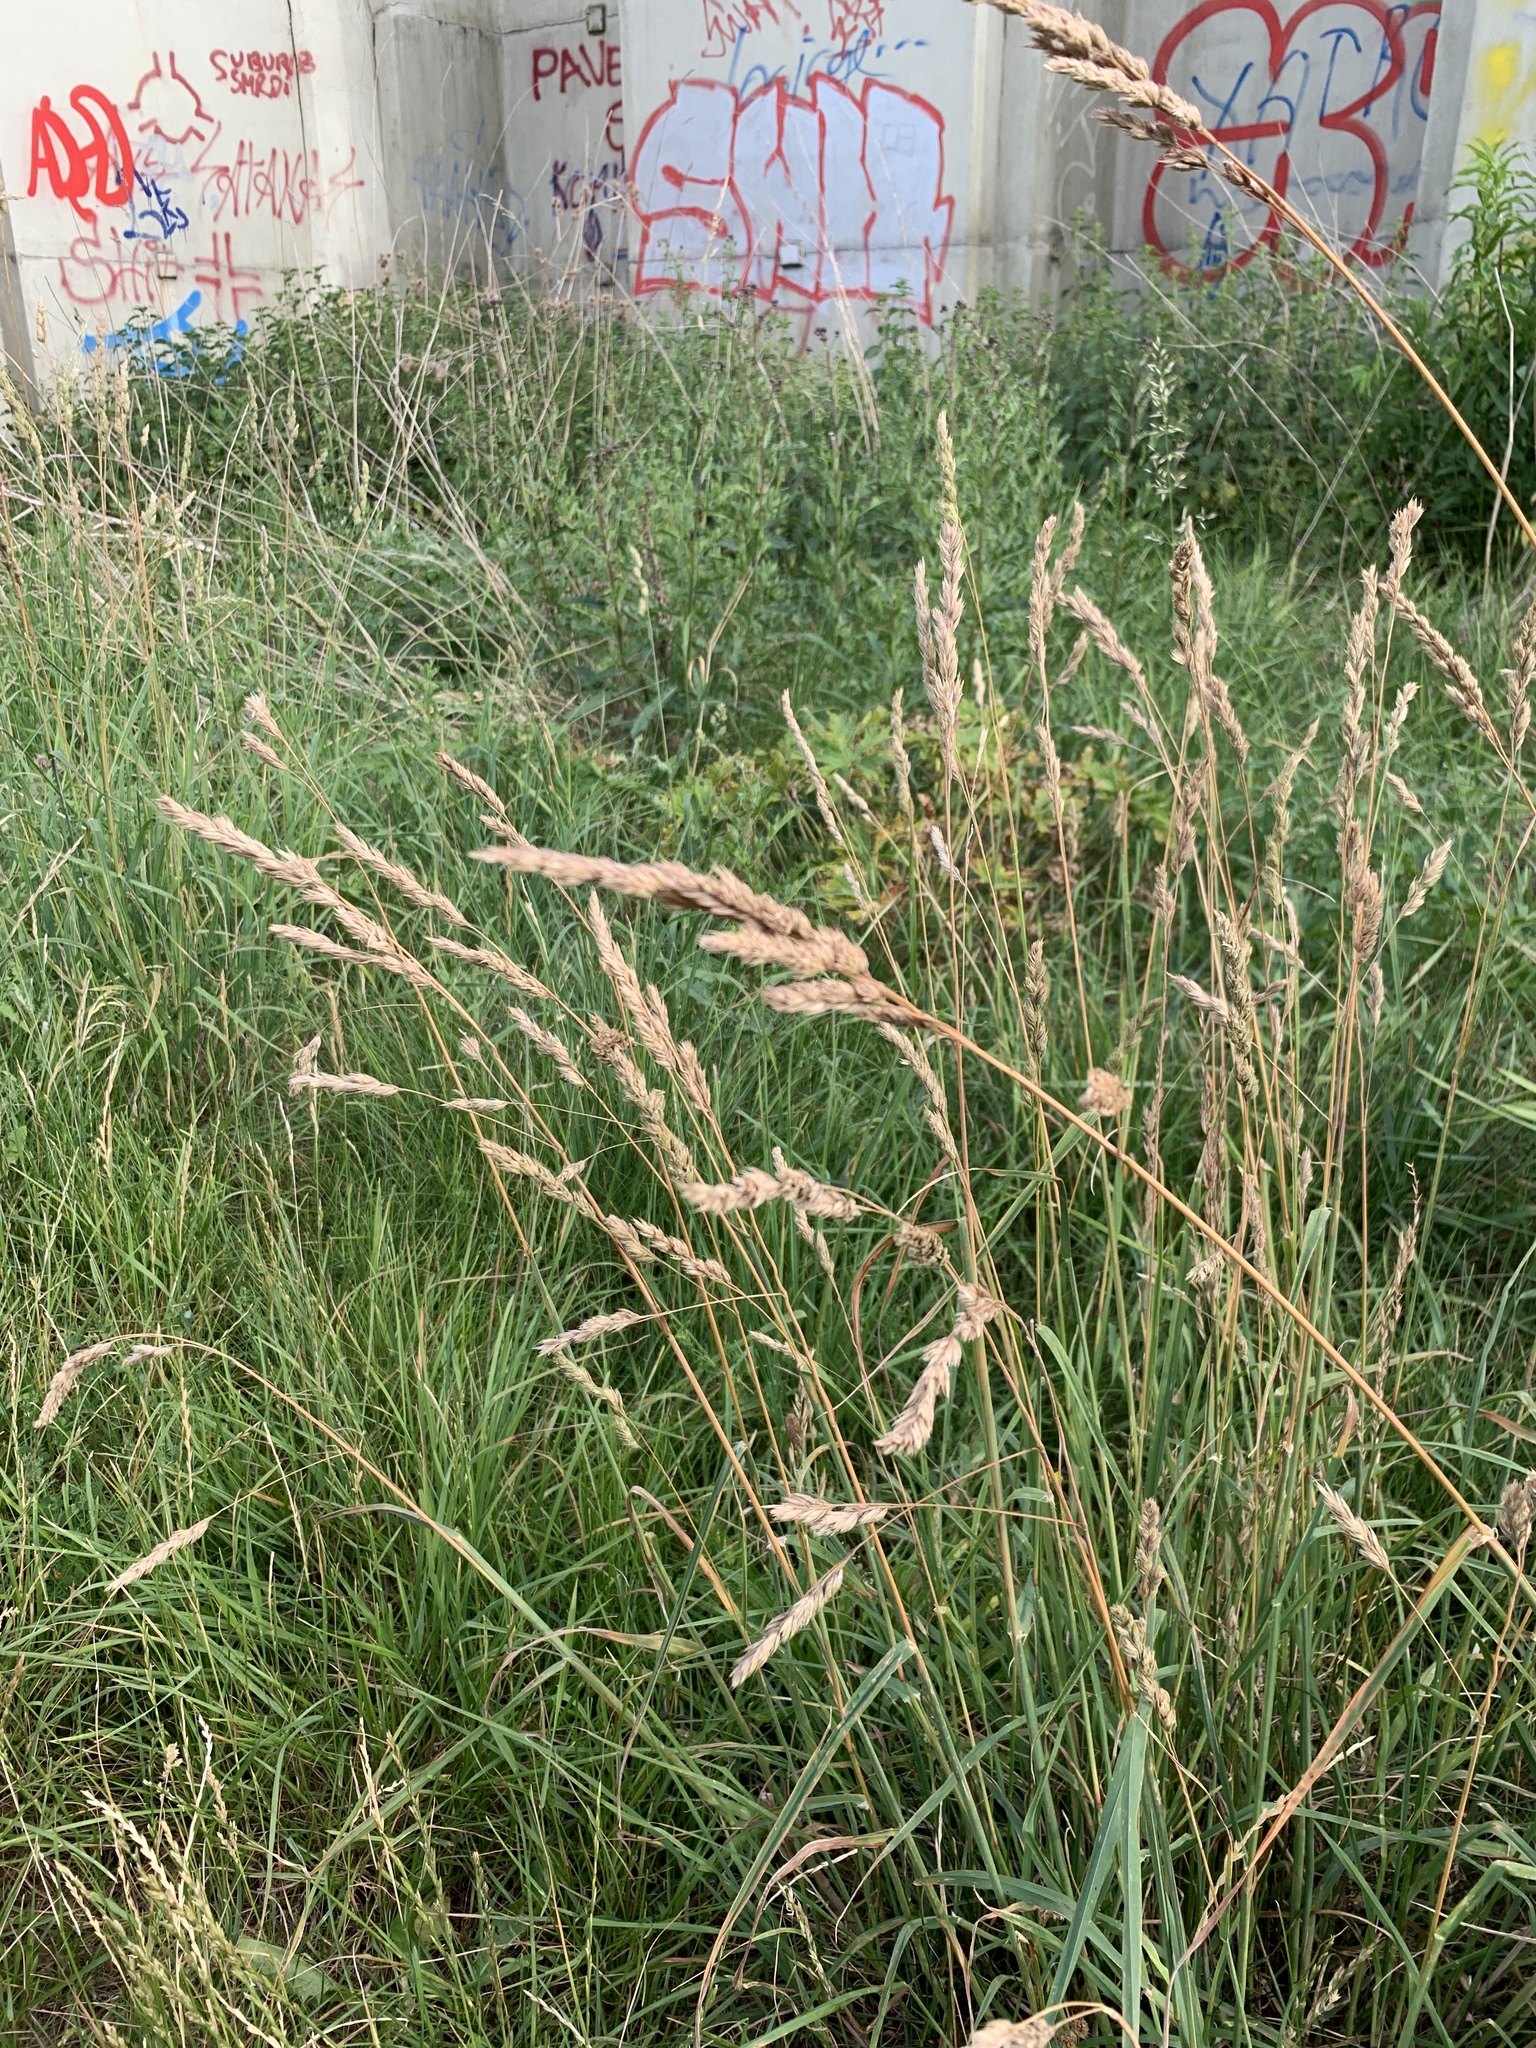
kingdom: Plantae
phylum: Tracheophyta
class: Liliopsida
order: Poales
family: Poaceae
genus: Dactylis
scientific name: Dactylis glomerata
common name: Orchardgrass
